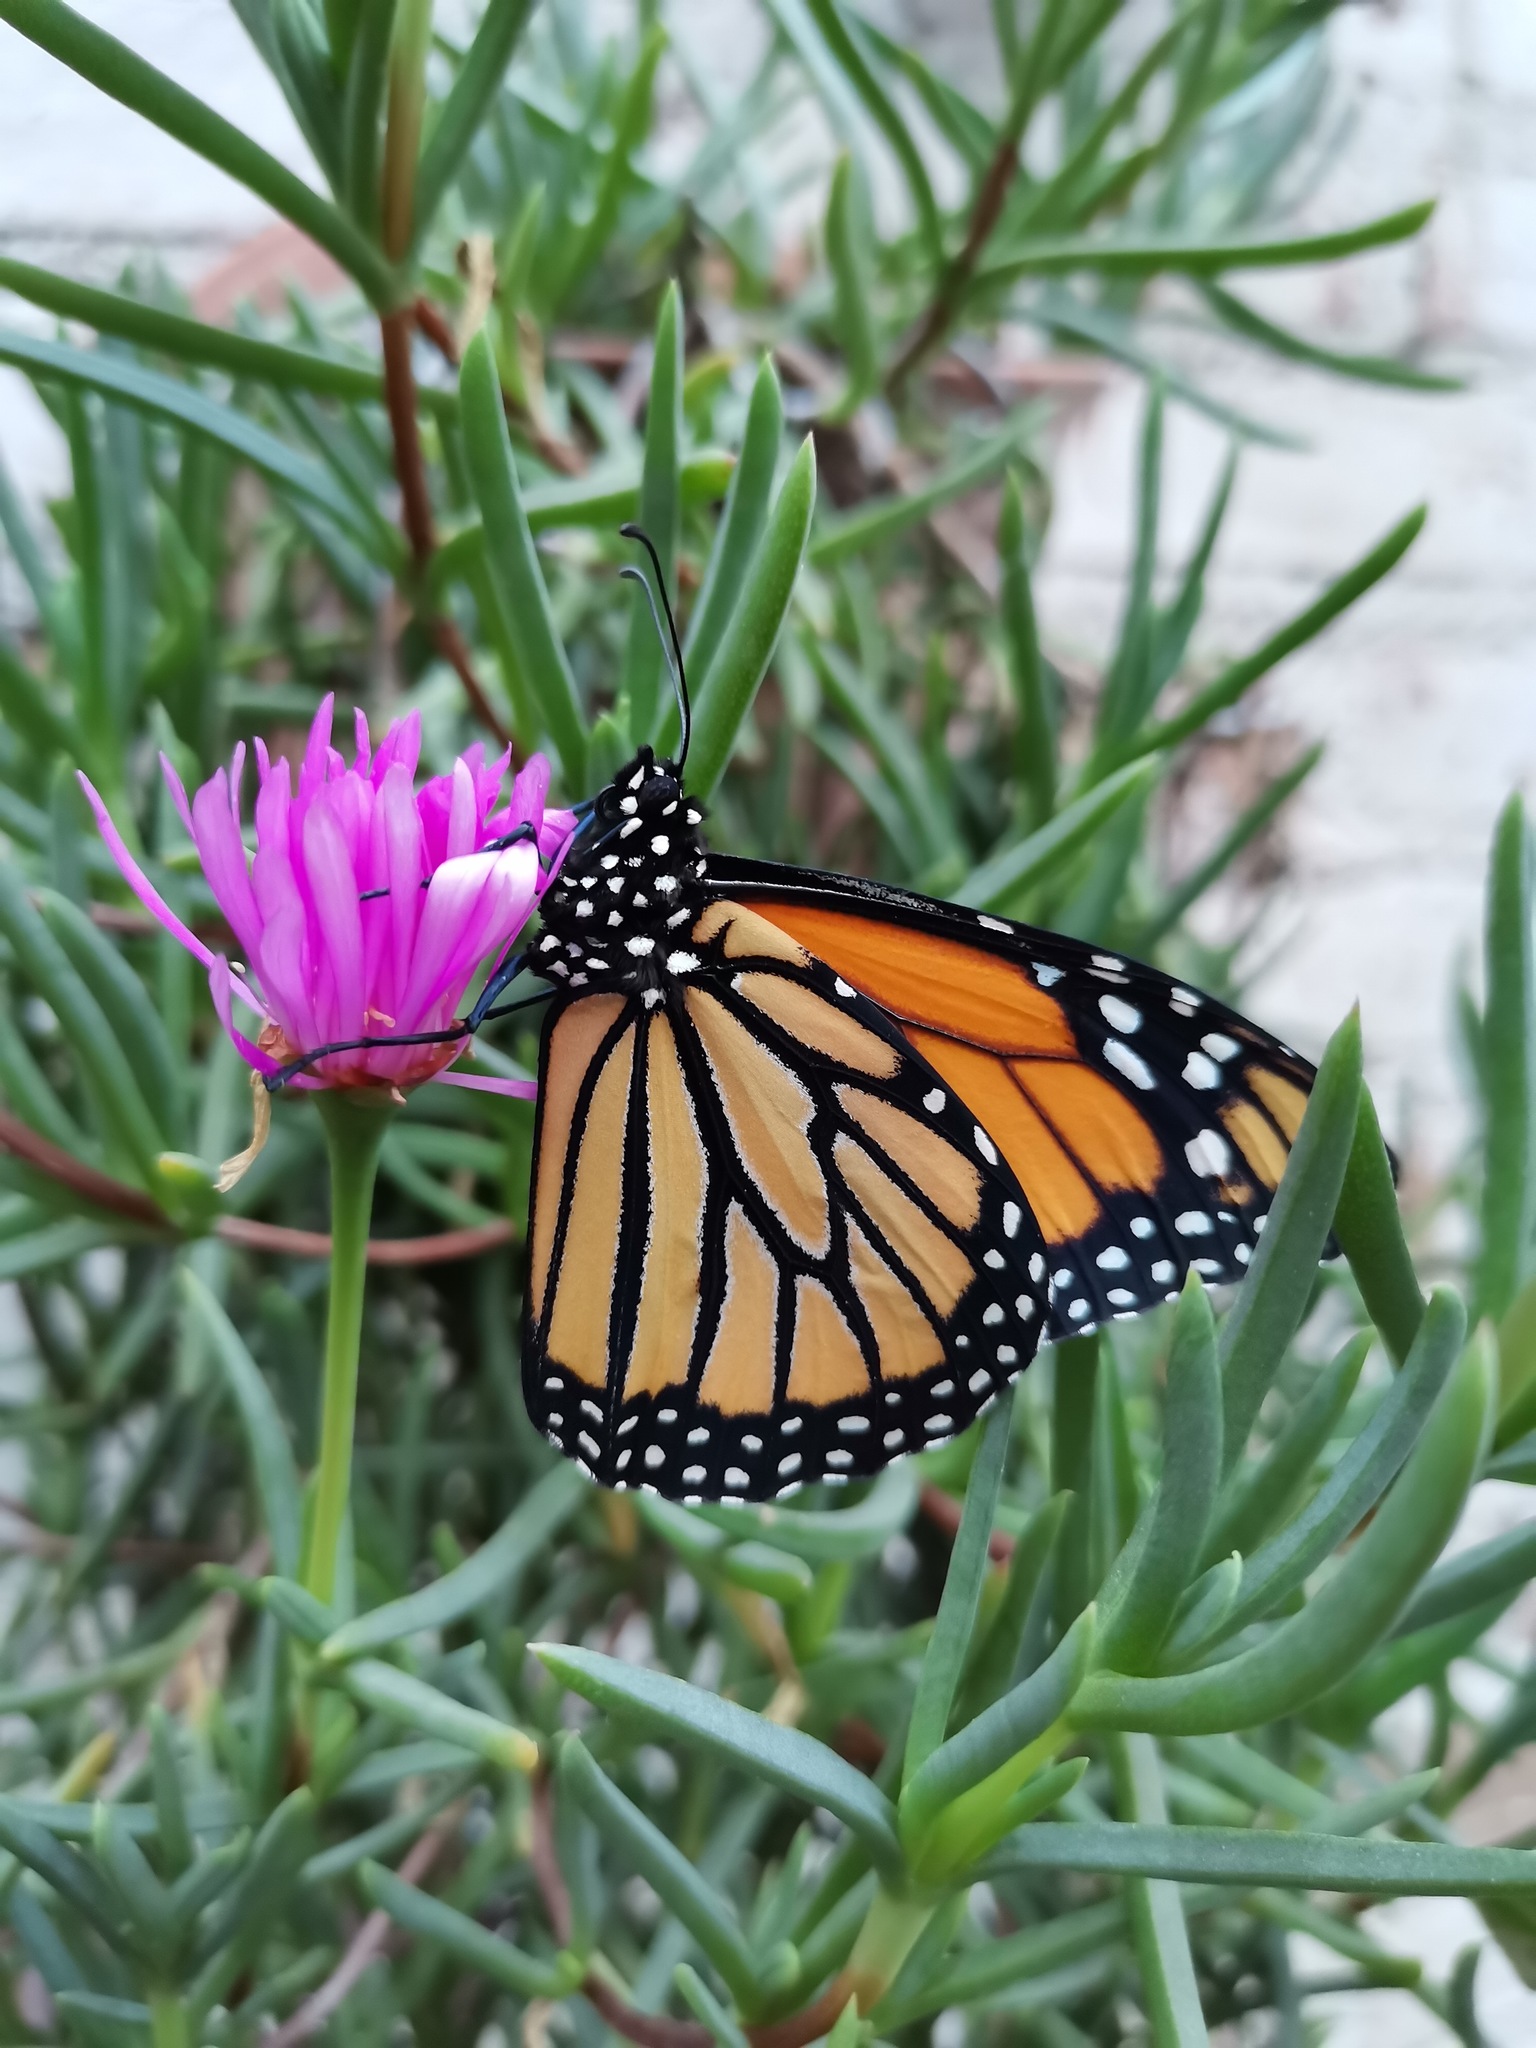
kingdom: Animalia
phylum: Arthropoda
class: Insecta
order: Lepidoptera
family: Nymphalidae
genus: Danaus
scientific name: Danaus plexippus
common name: Monarch
